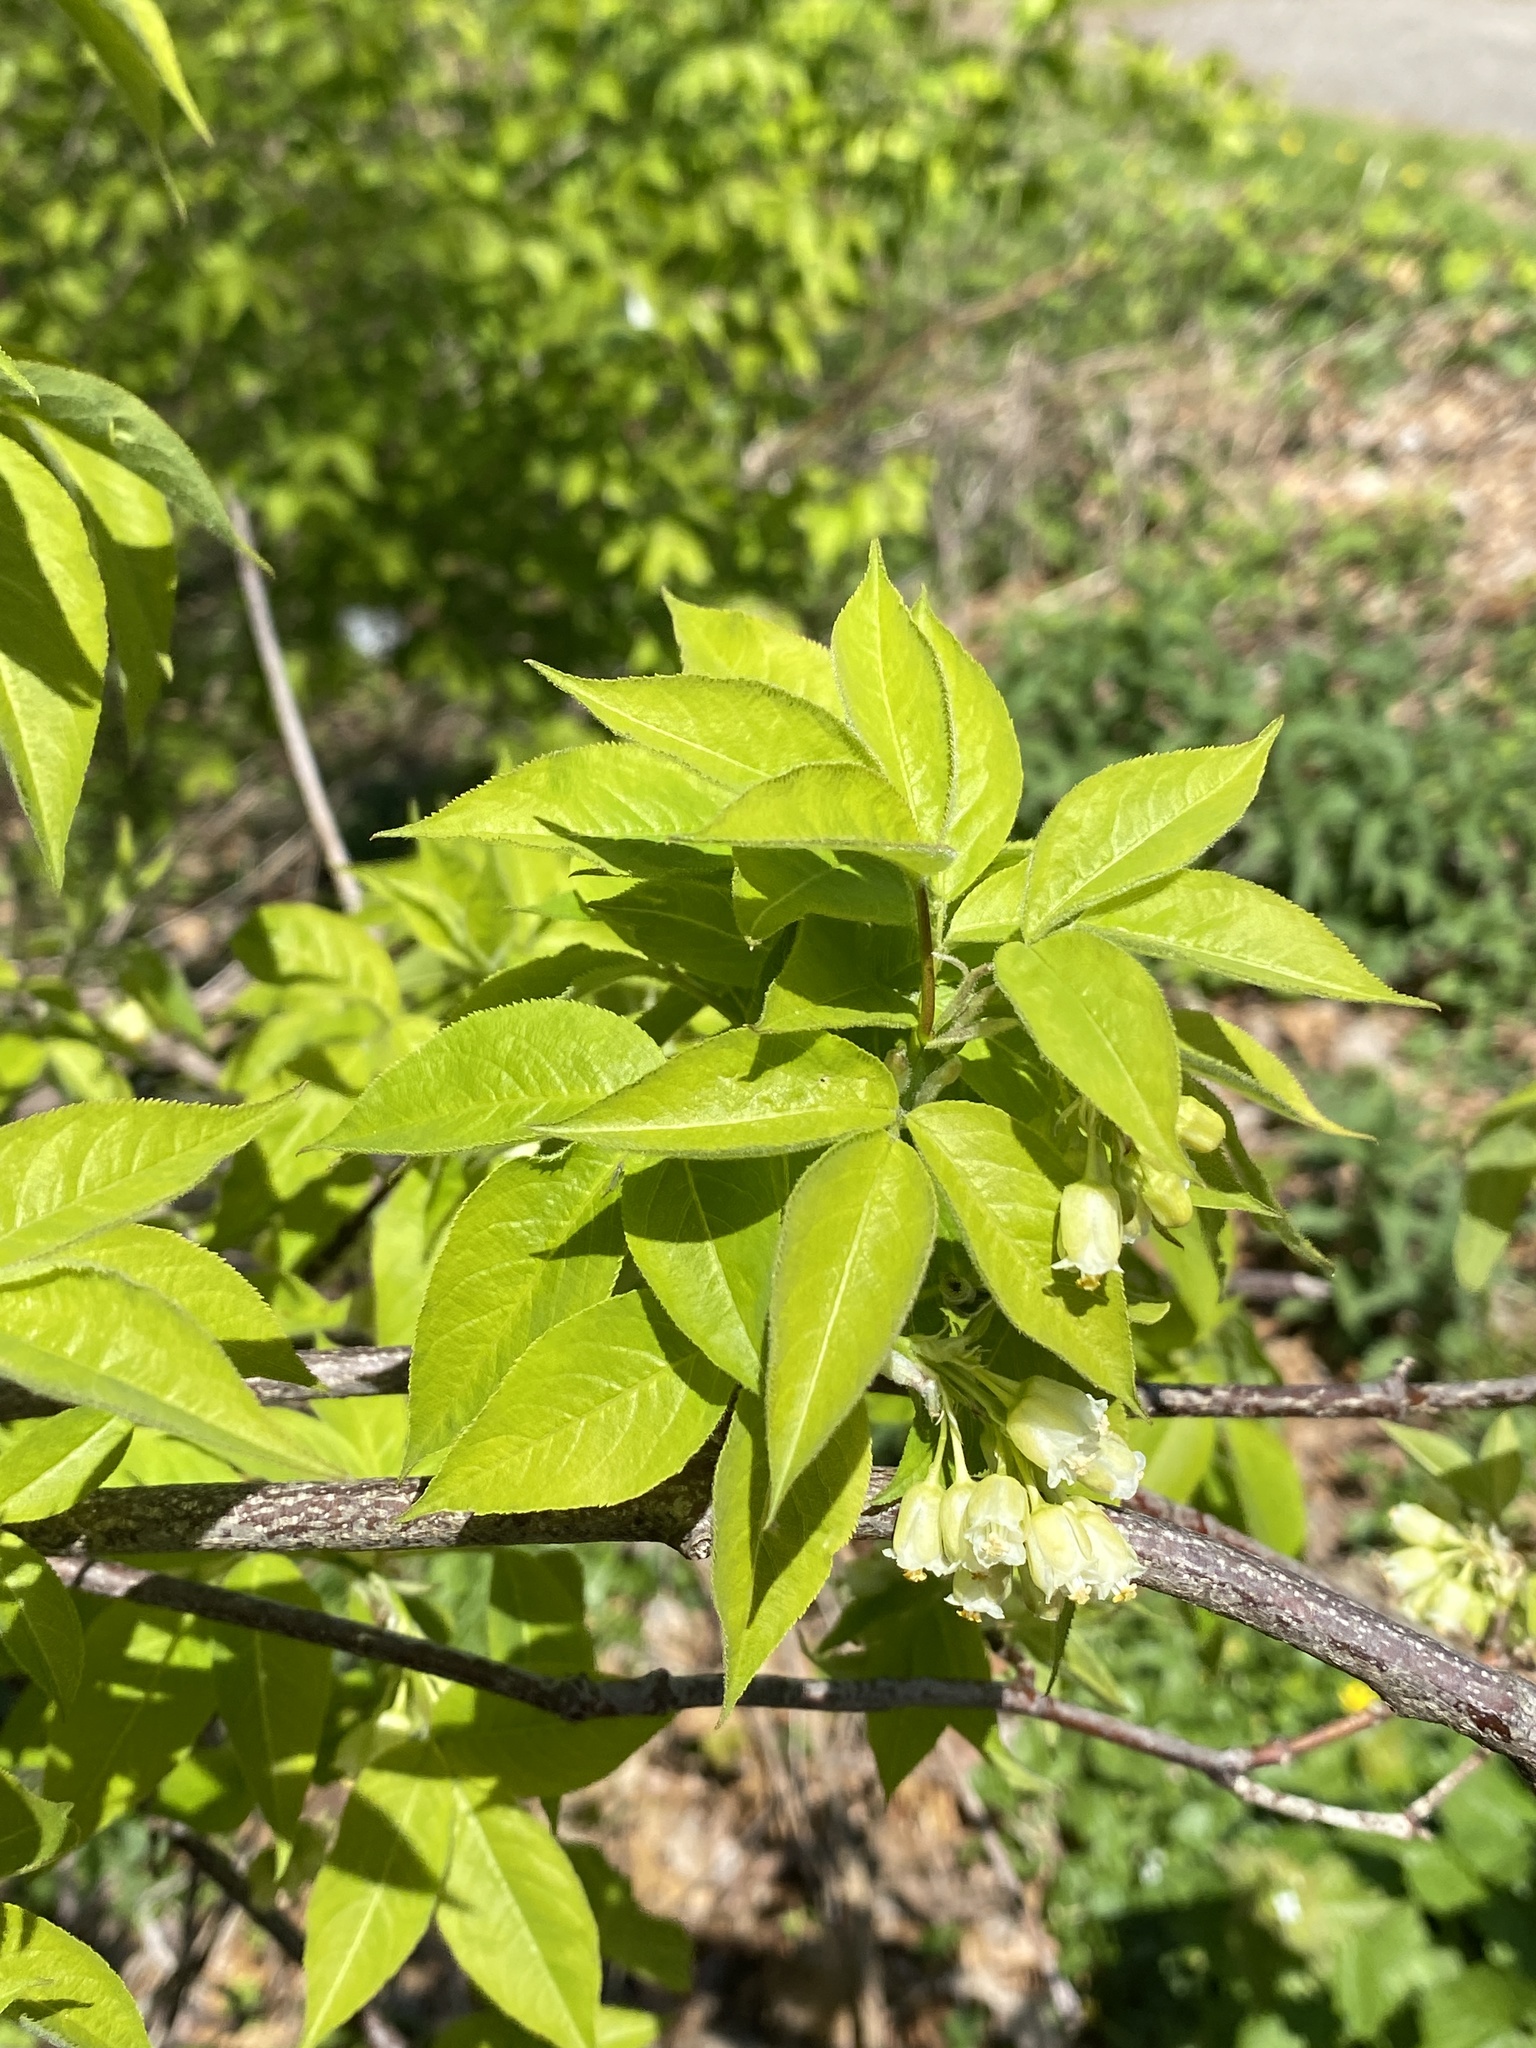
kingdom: Plantae
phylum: Tracheophyta
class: Magnoliopsida
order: Crossosomatales
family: Staphyleaceae
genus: Staphylea
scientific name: Staphylea trifolia
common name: American bladdernut
